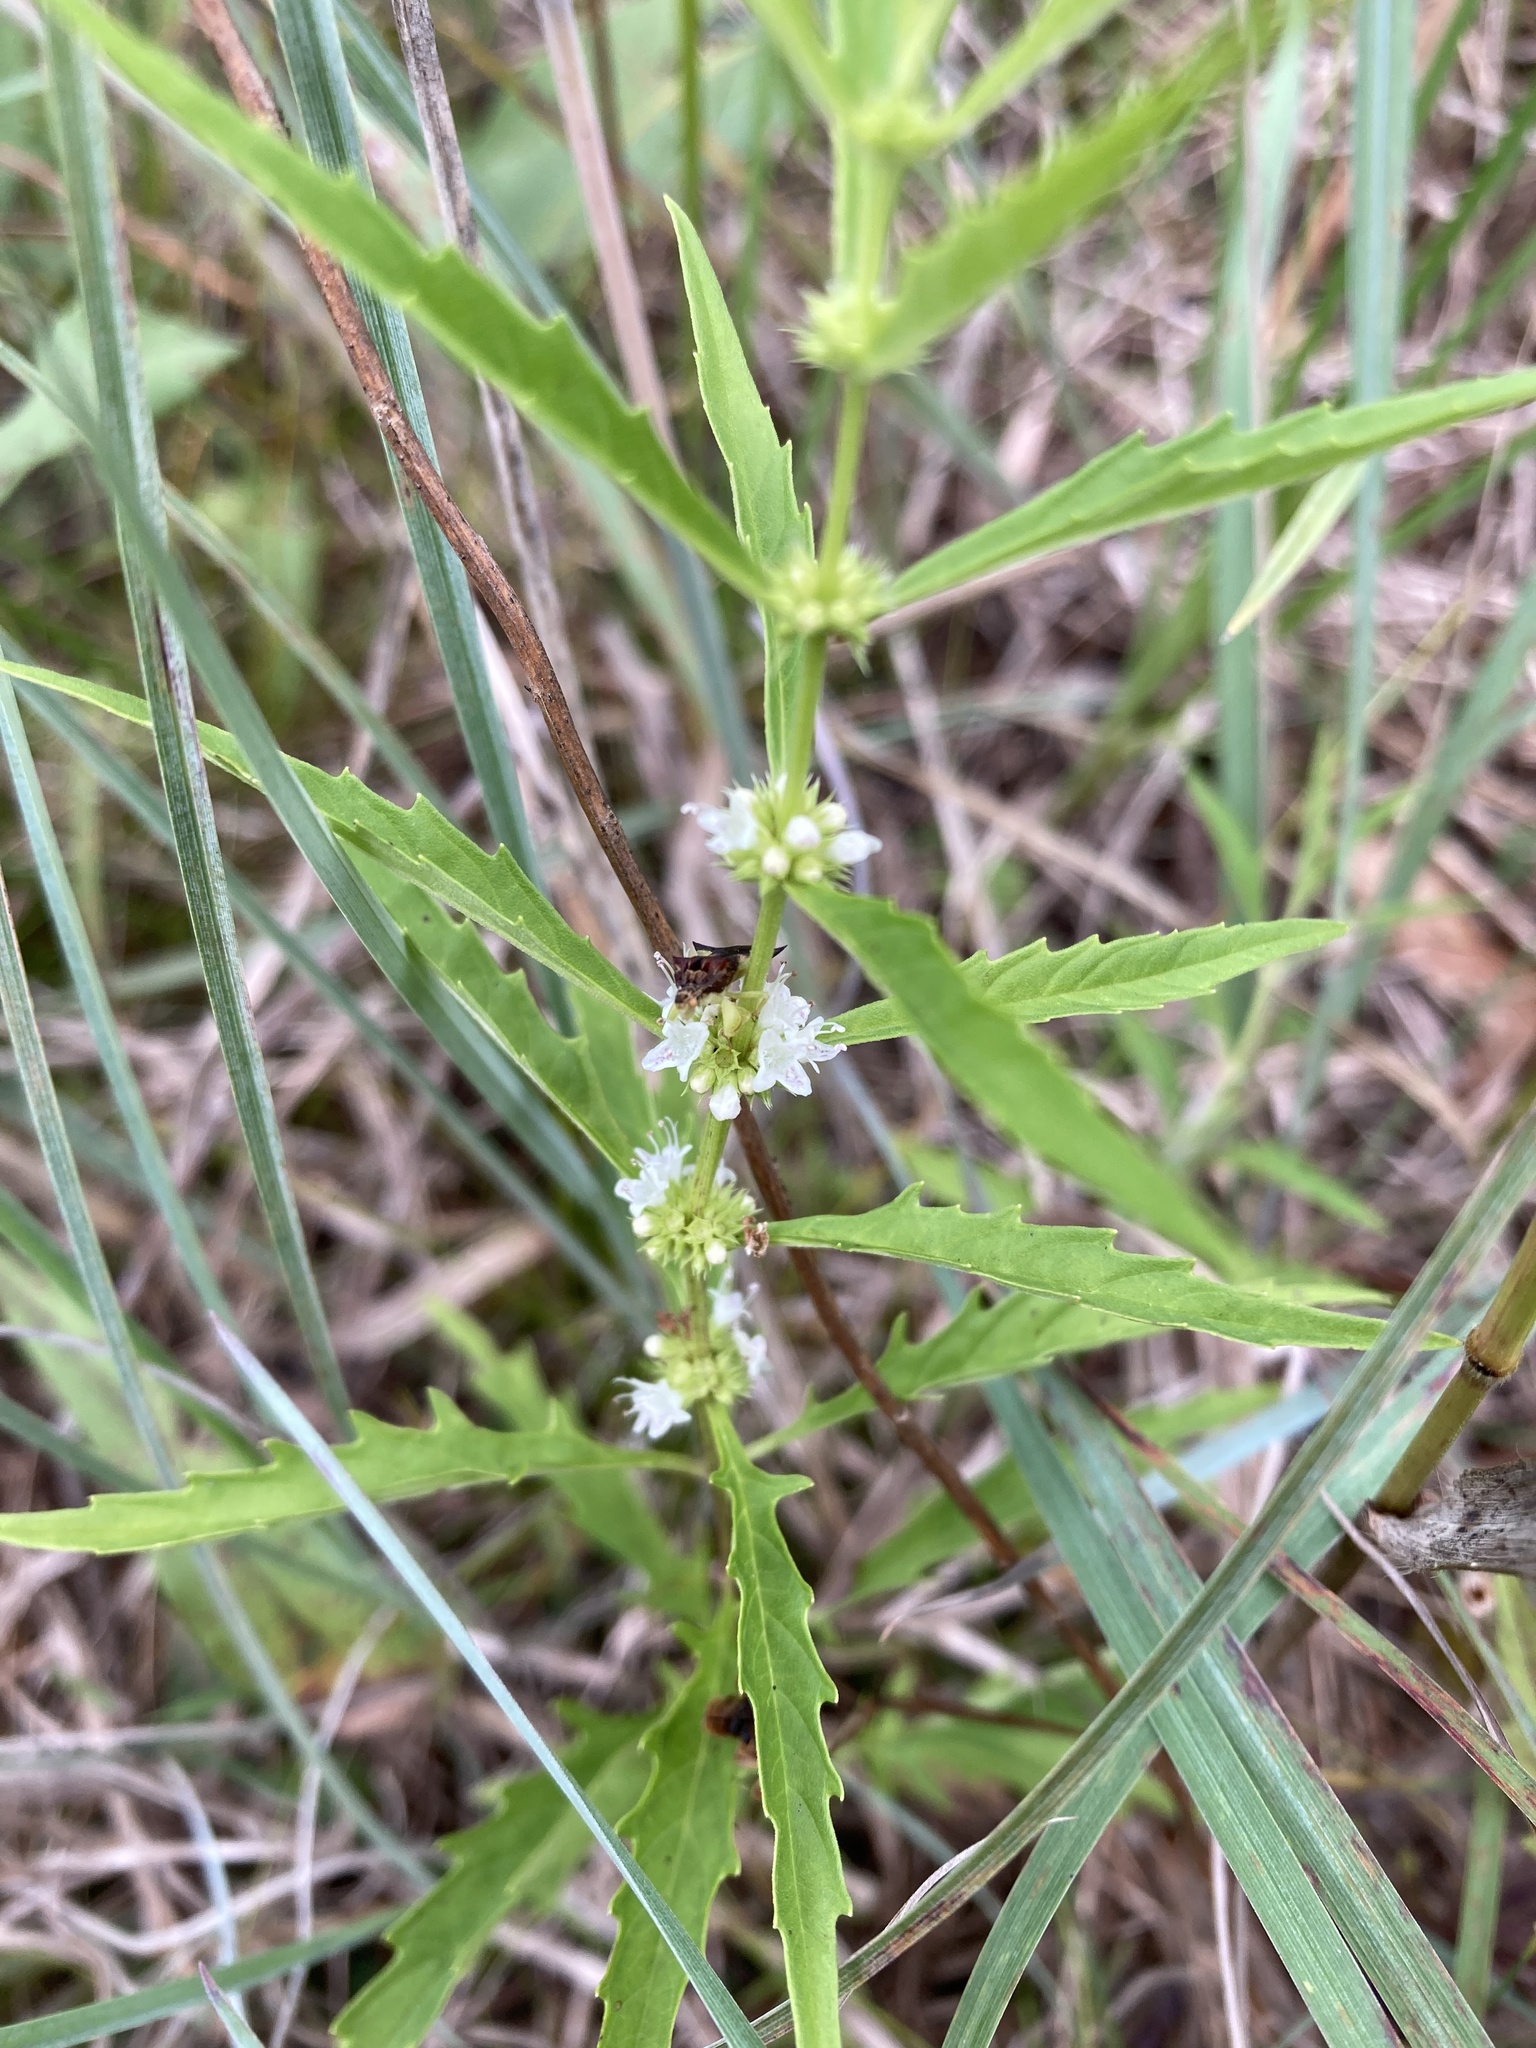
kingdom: Plantae
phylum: Tracheophyta
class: Magnoliopsida
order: Lamiales
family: Lamiaceae
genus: Lycopus
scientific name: Lycopus americanus
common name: American bugleweed
